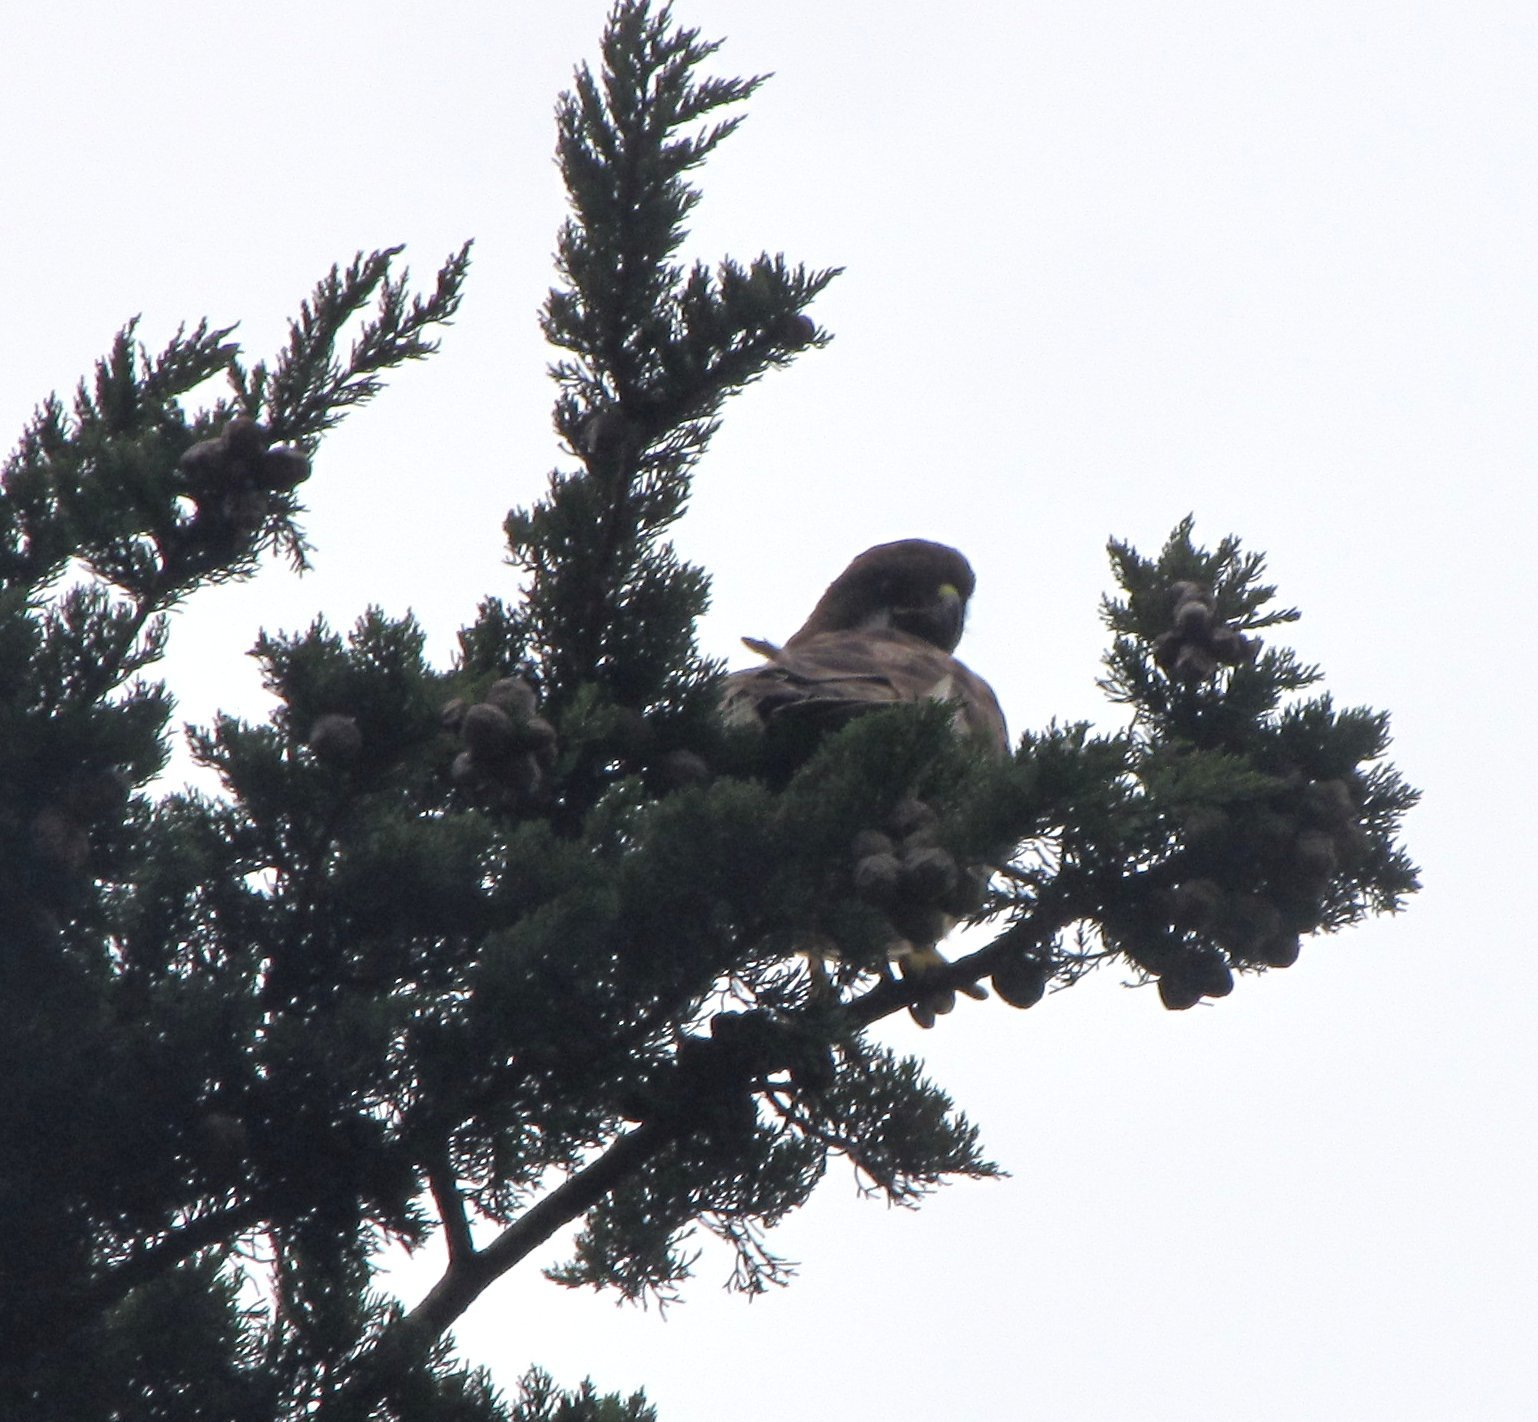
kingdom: Animalia
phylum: Chordata
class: Aves
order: Accipitriformes
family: Accipitridae
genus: Buteo
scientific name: Buteo jamaicensis
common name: Red-tailed hawk
